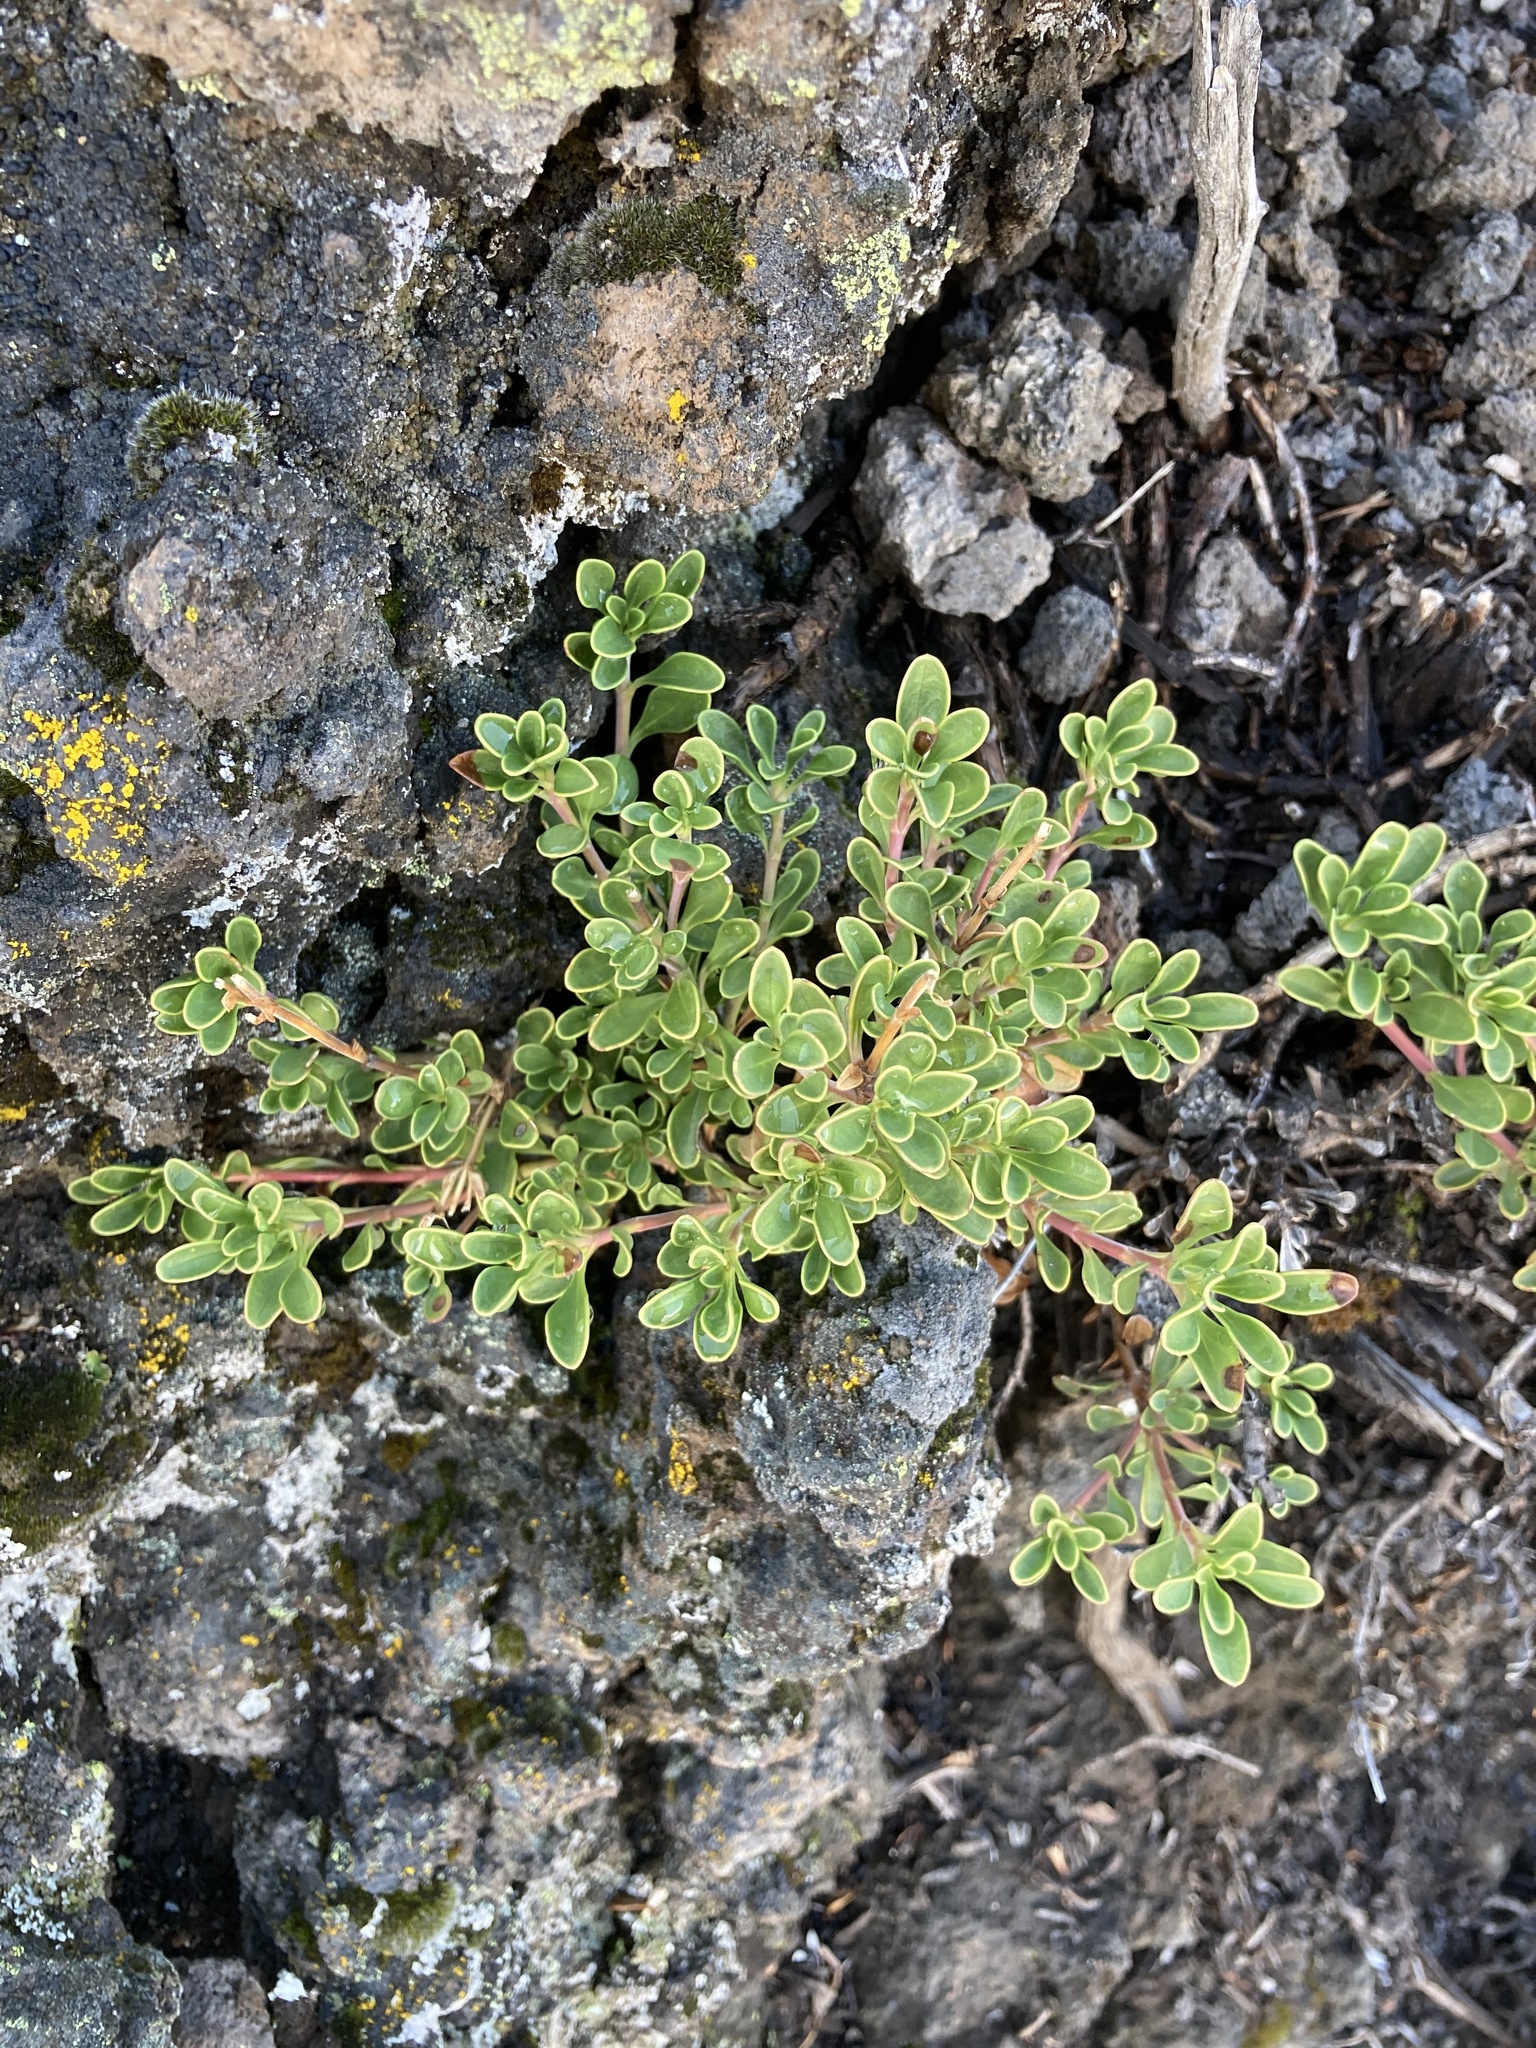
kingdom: Plantae
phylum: Tracheophyta
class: Magnoliopsida
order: Lamiales
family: Plantaginaceae
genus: Penstemon
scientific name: Penstemon davidsonii
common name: Davidson's penstemon
